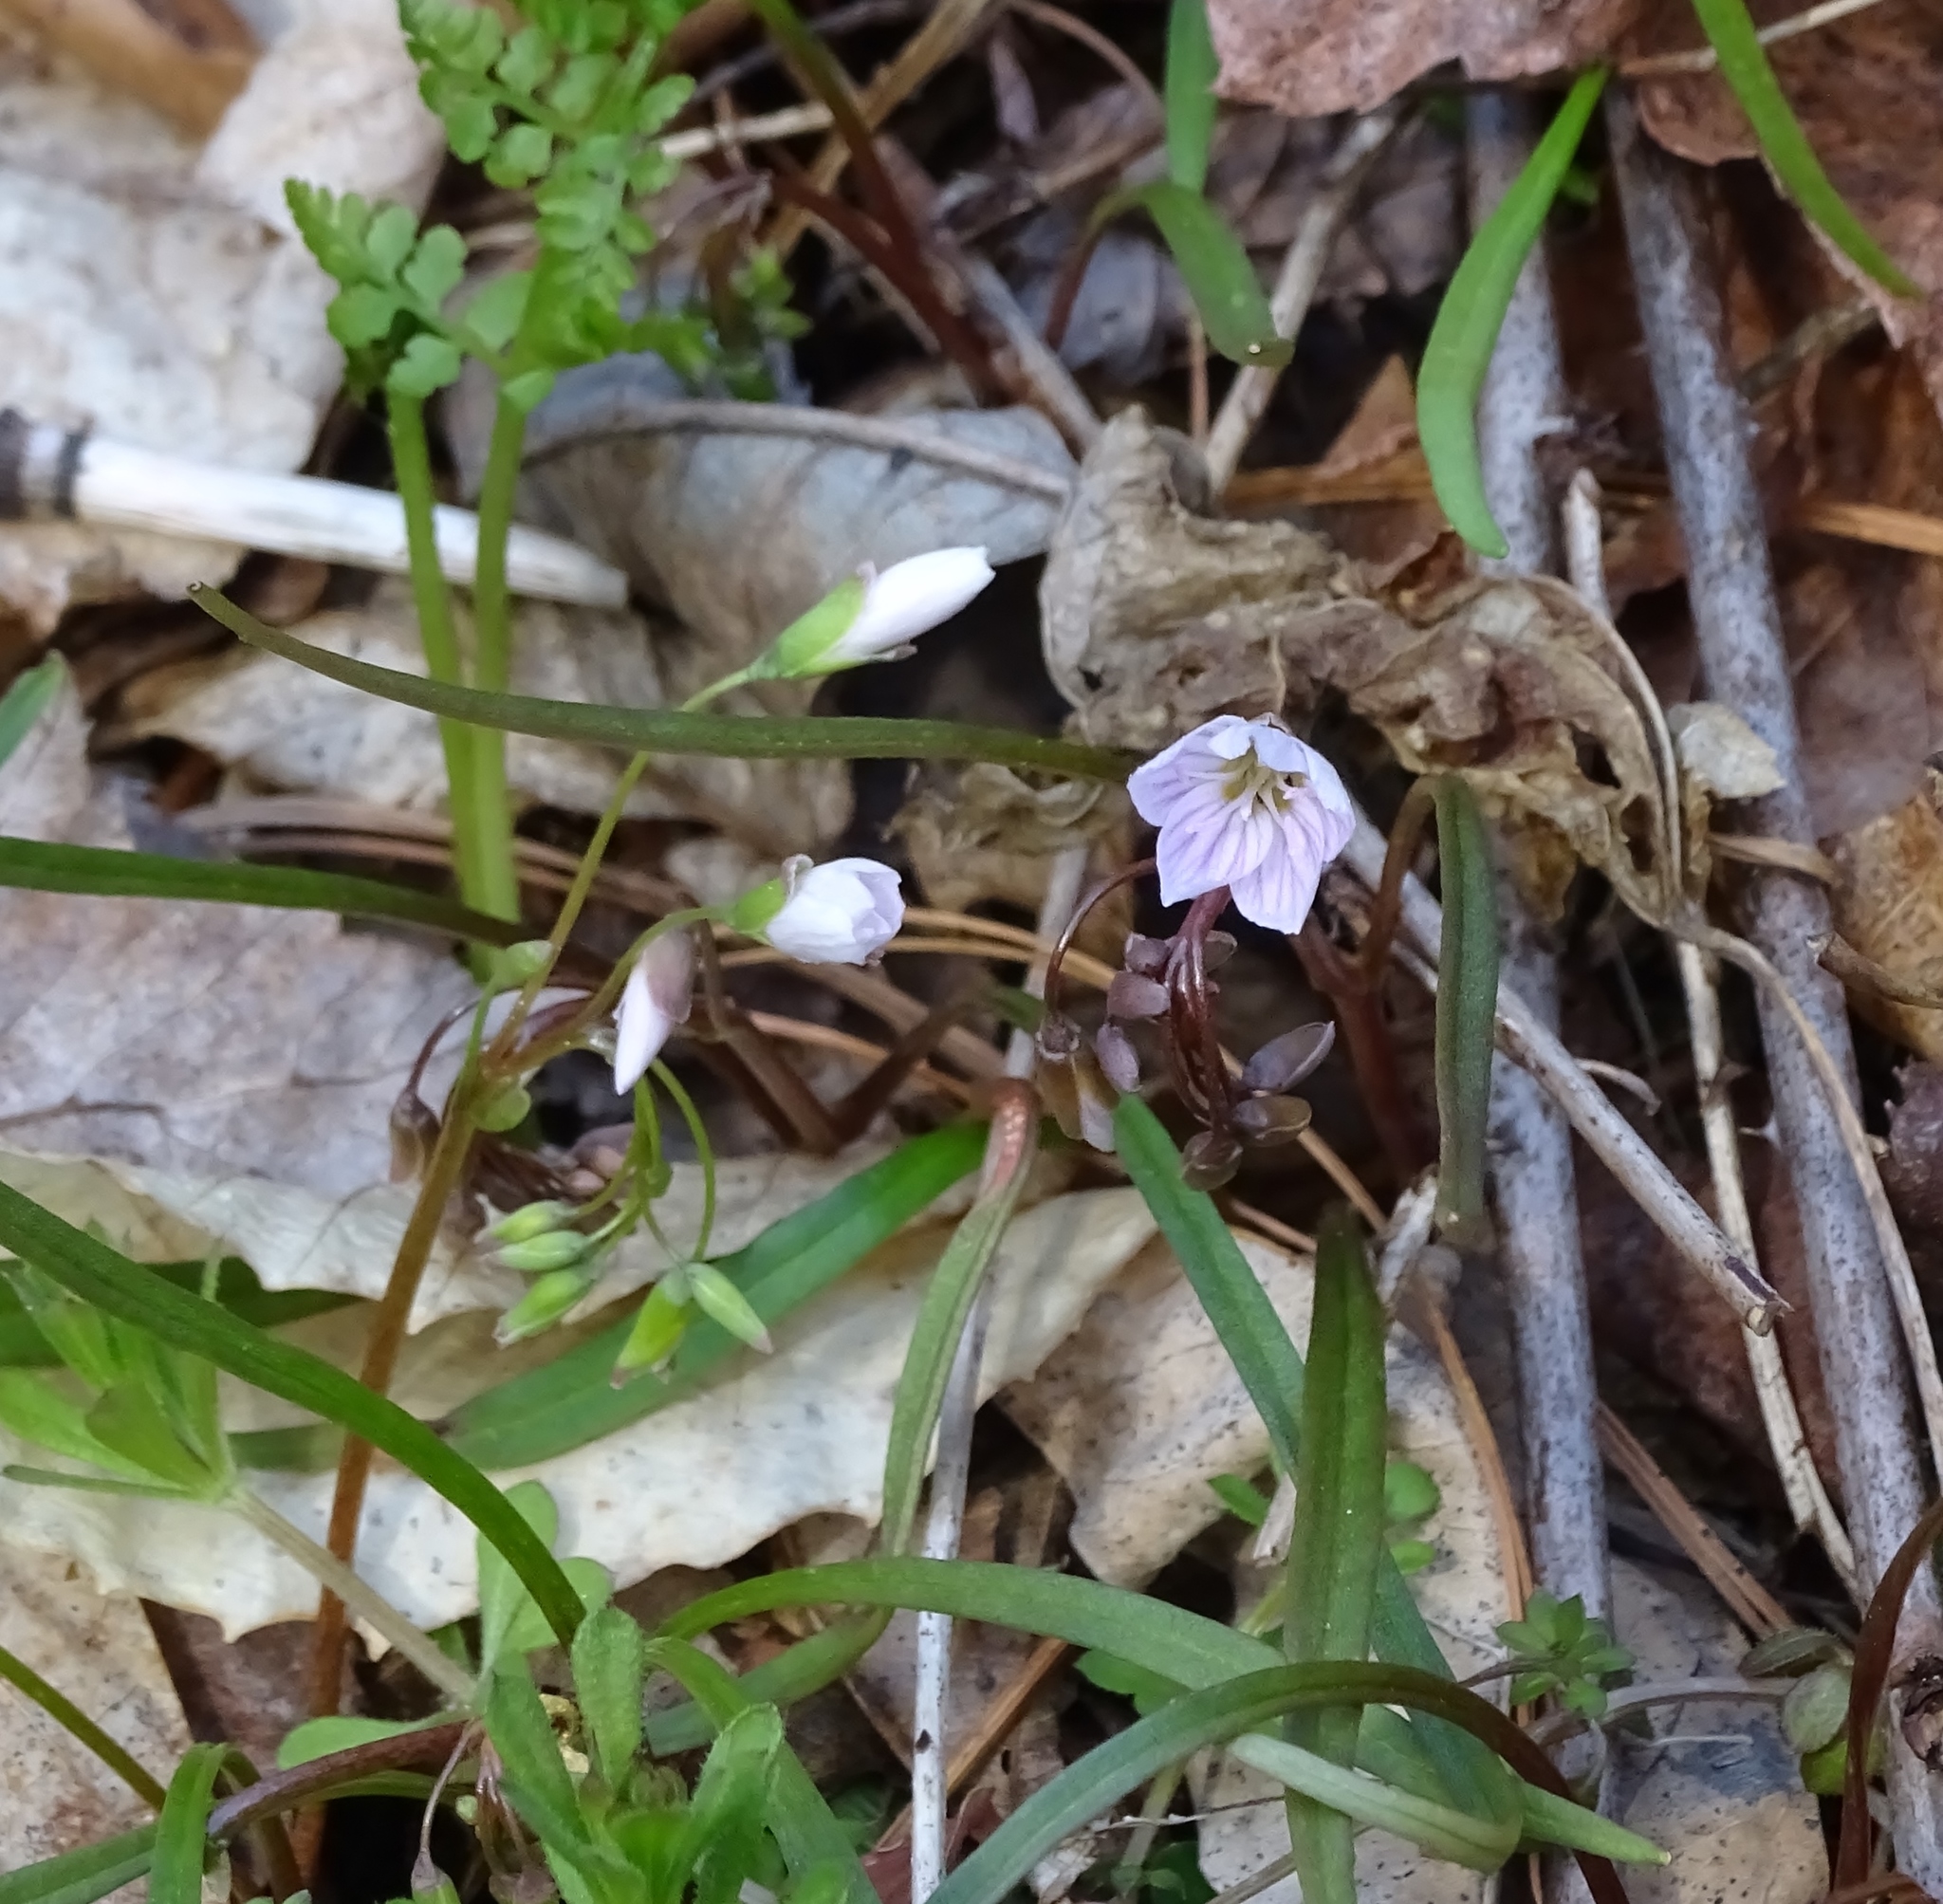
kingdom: Plantae
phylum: Tracheophyta
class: Magnoliopsida
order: Caryophyllales
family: Montiaceae
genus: Claytonia
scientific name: Claytonia virginica
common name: Virginia springbeauty
